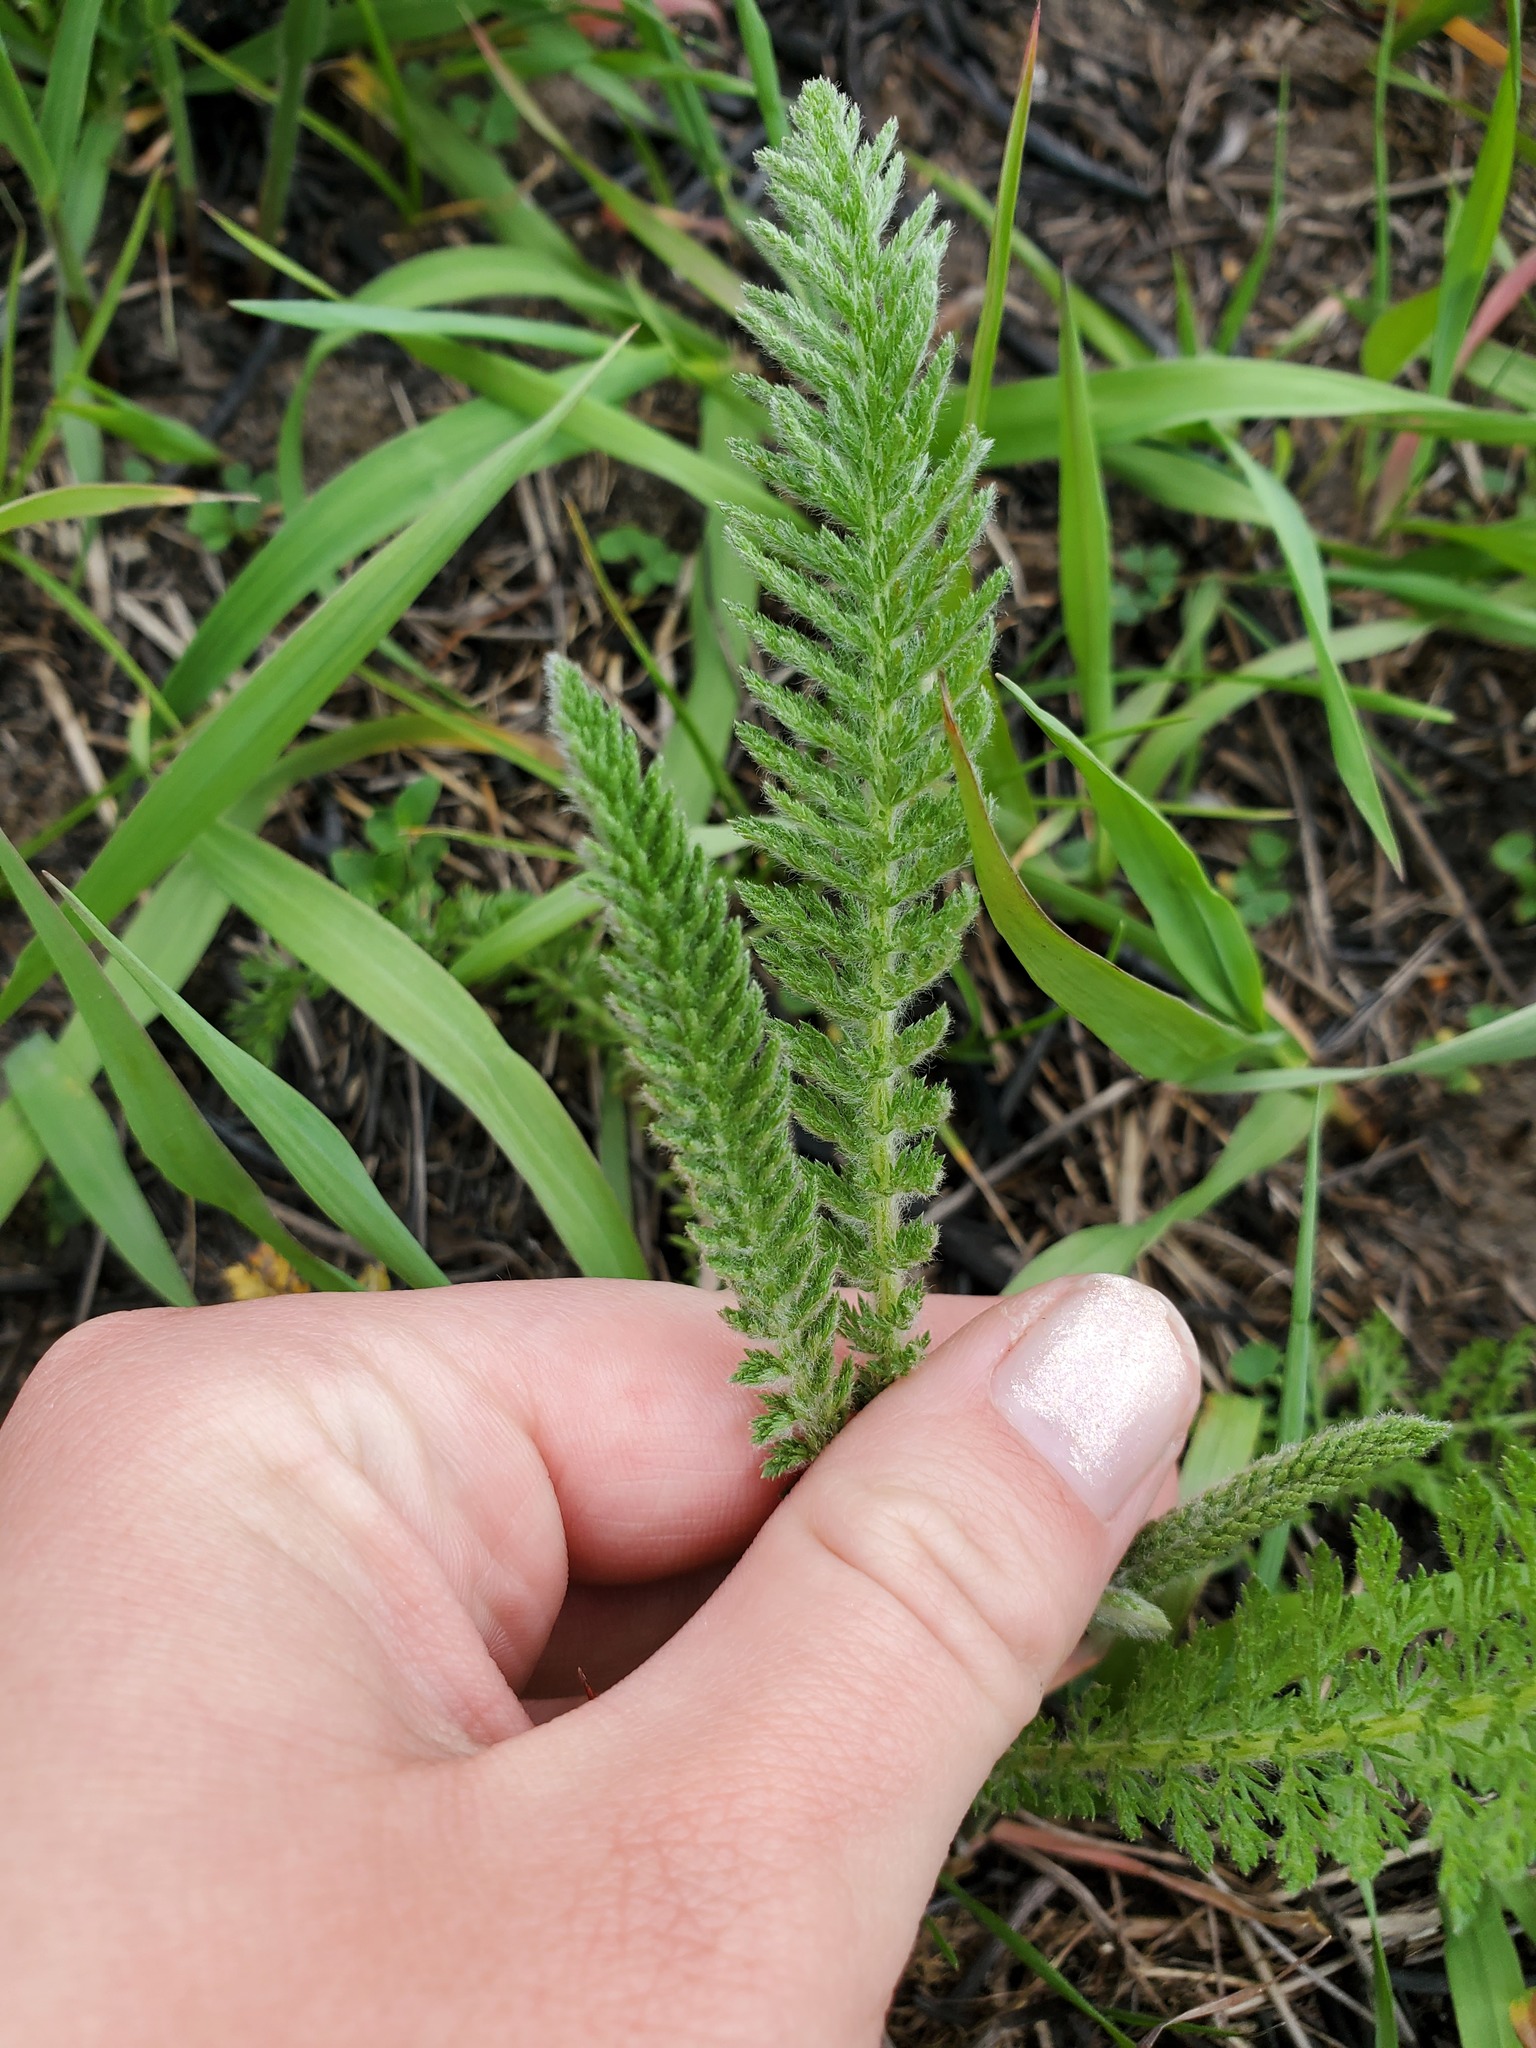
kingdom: Plantae
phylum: Tracheophyta
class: Magnoliopsida
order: Asterales
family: Asteraceae
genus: Achillea
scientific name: Achillea millefolium
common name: Yarrow
